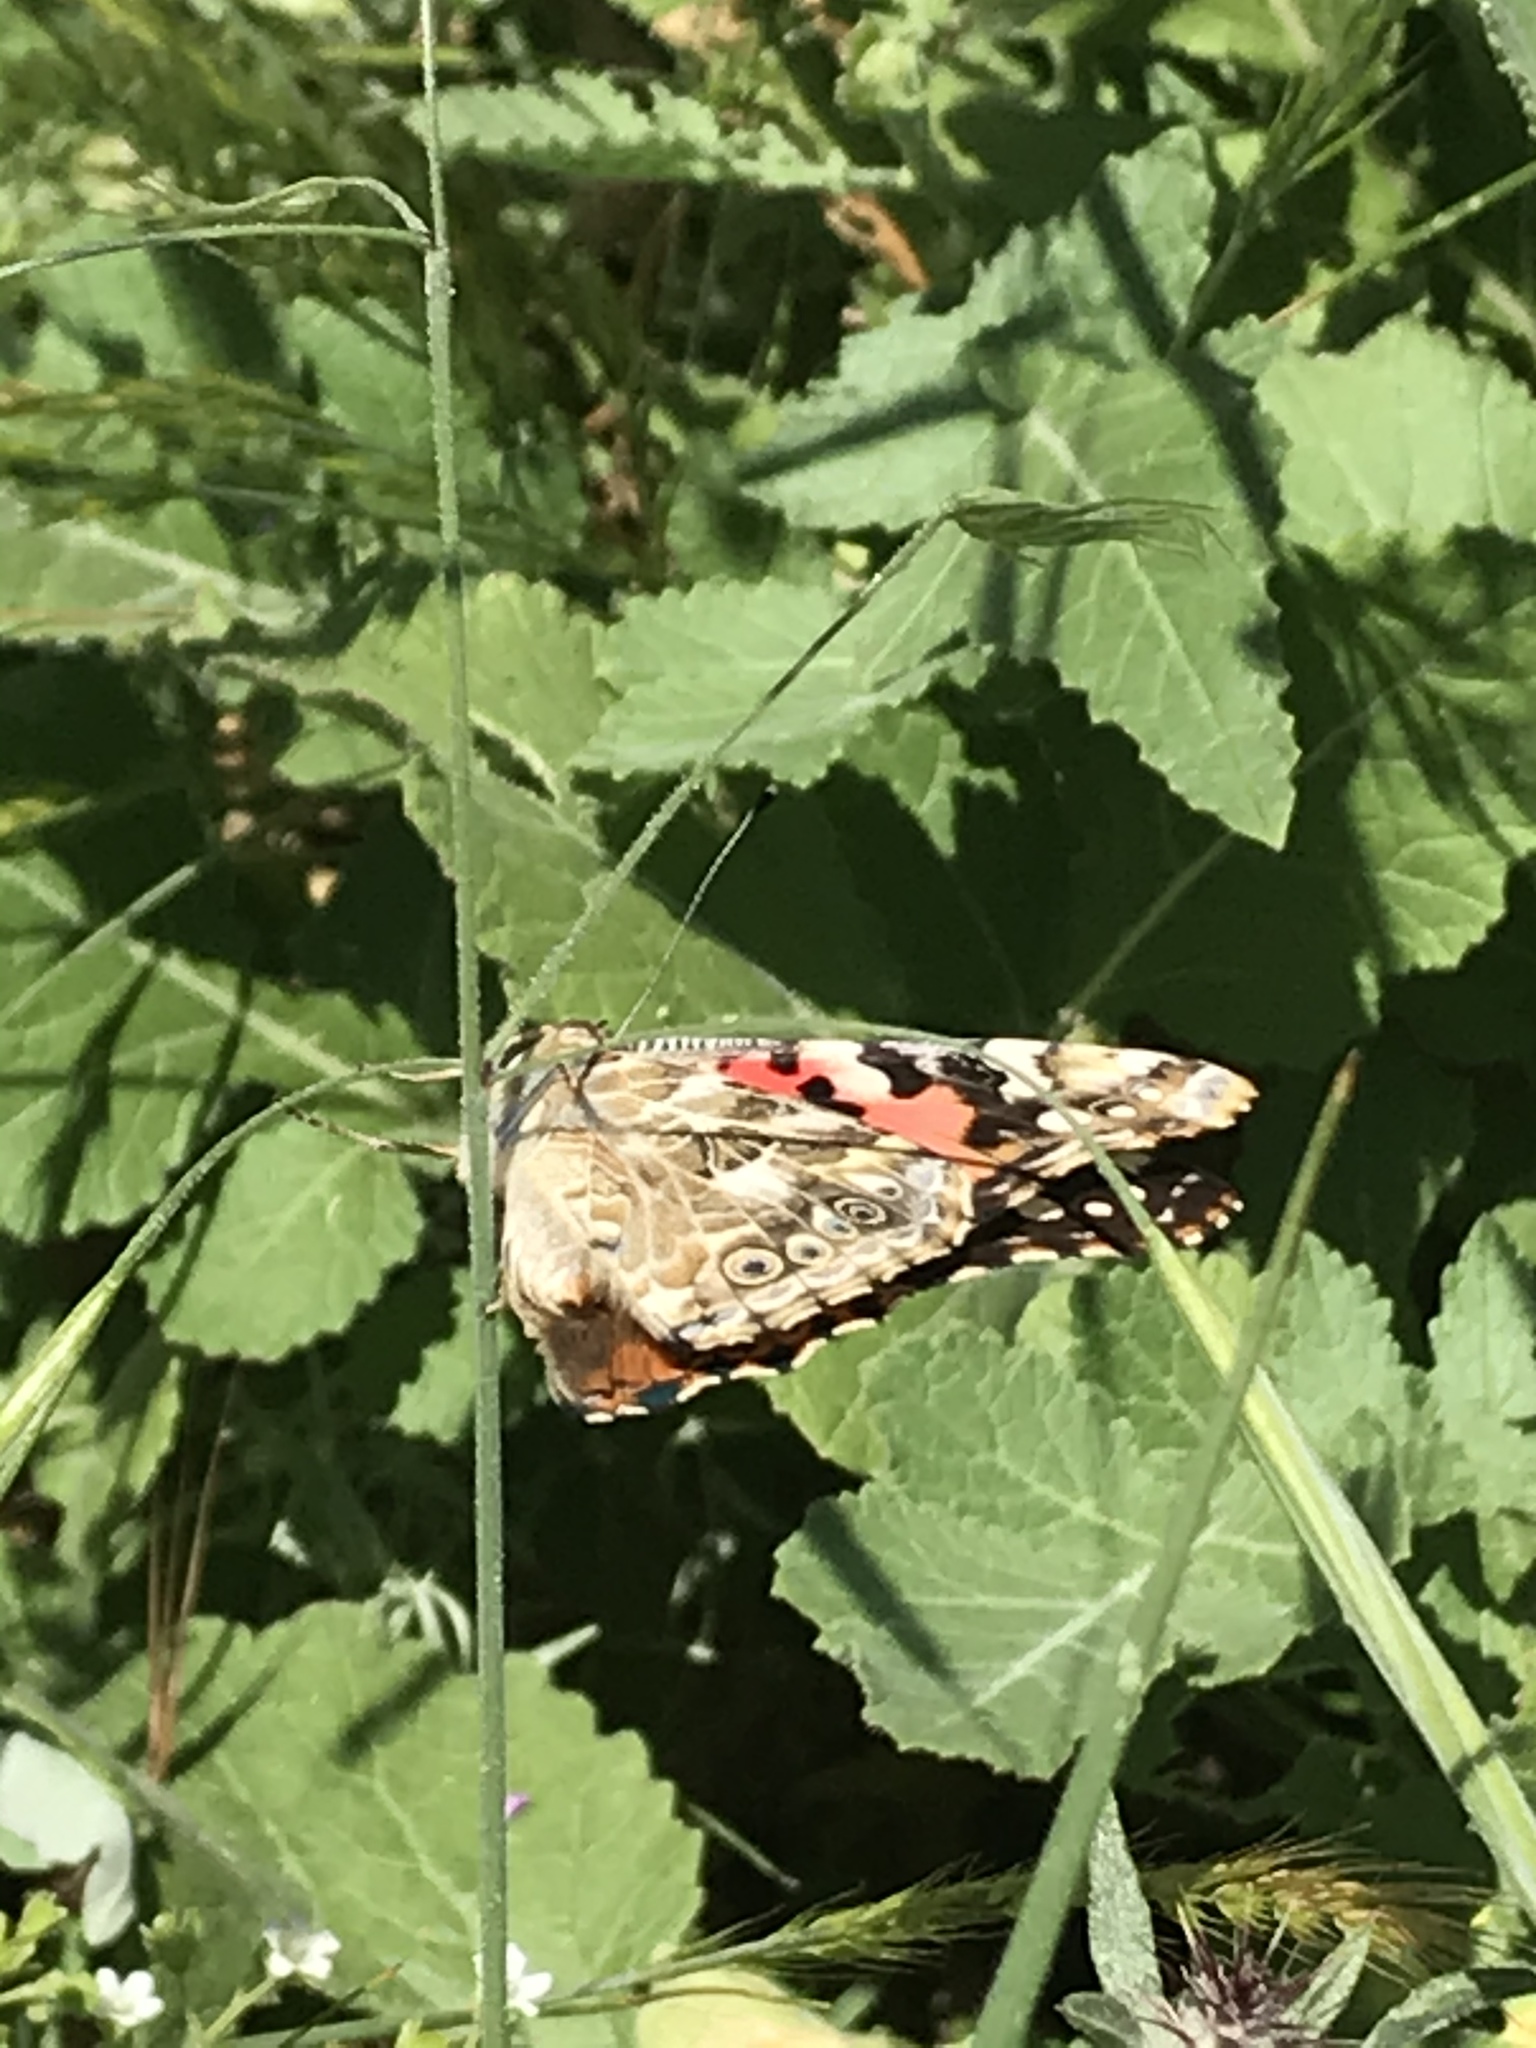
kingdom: Animalia
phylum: Arthropoda
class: Insecta
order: Lepidoptera
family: Nymphalidae
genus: Vanessa
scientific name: Vanessa cardui
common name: Painted lady
